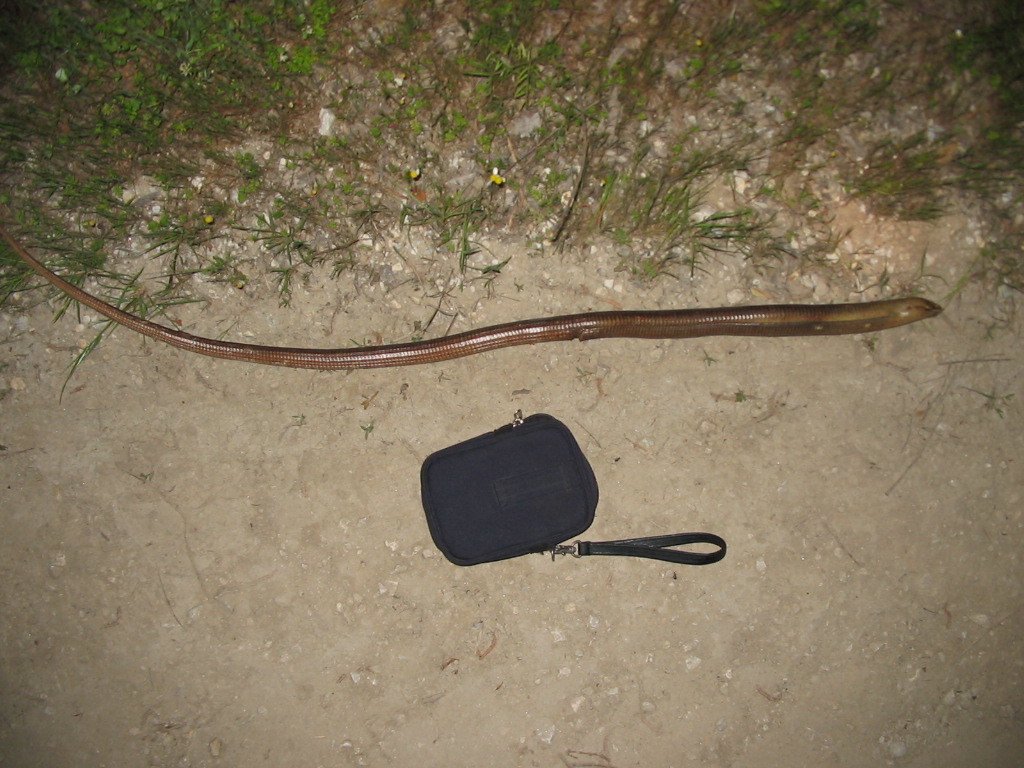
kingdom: Animalia
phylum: Chordata
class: Squamata
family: Anguidae
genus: Pseudopus
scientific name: Pseudopus apodus
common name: European glass lizard
